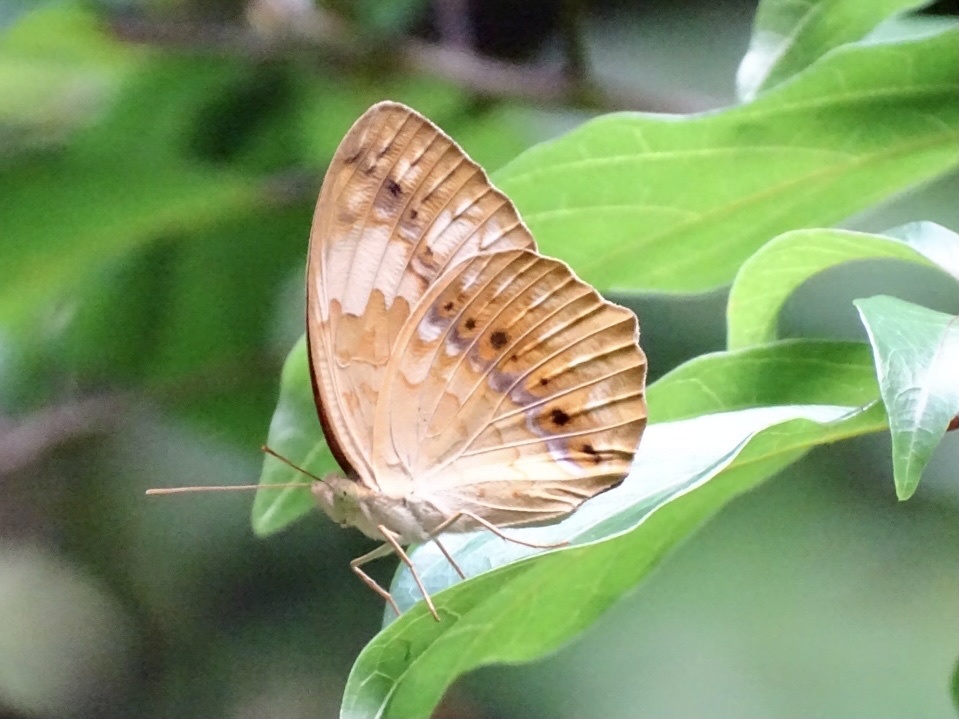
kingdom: Animalia
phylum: Arthropoda
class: Insecta
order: Lepidoptera
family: Nymphalidae
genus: Cupha
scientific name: Cupha erymanthis
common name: Rustic
